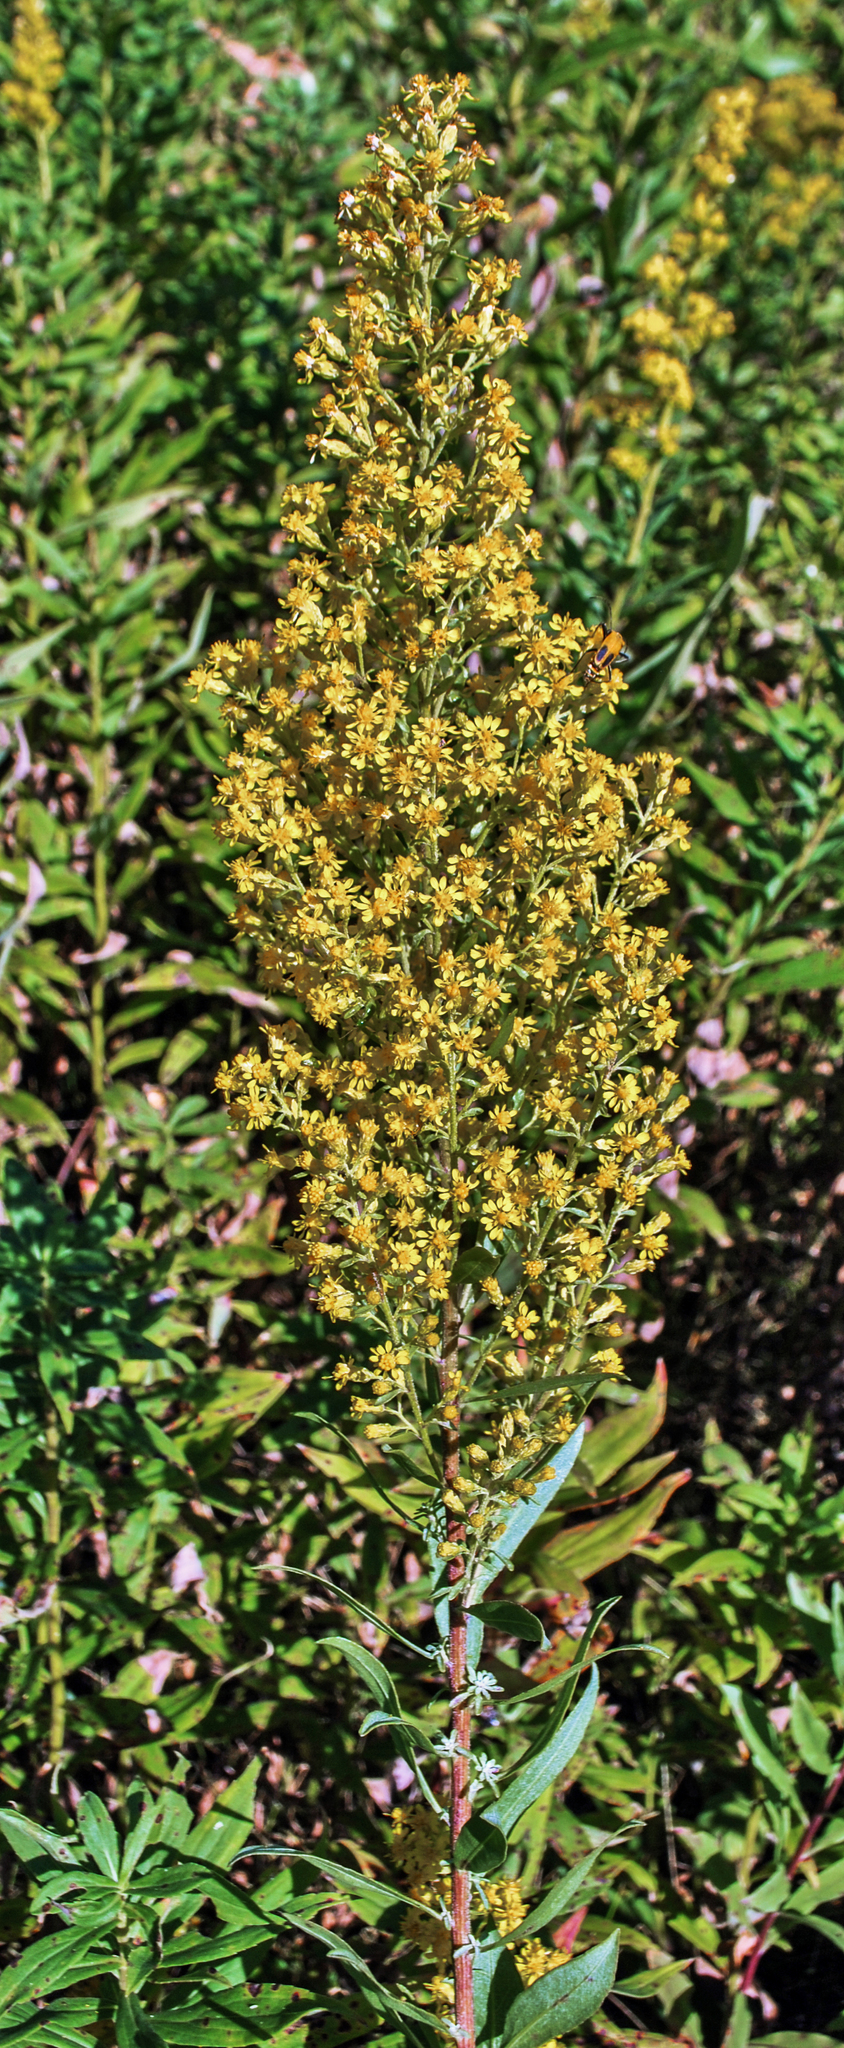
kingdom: Plantae
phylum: Tracheophyta
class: Magnoliopsida
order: Asterales
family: Asteraceae
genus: Solidago
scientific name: Solidago rigidiuscula
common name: Stiff-leaved showy goldenrod
